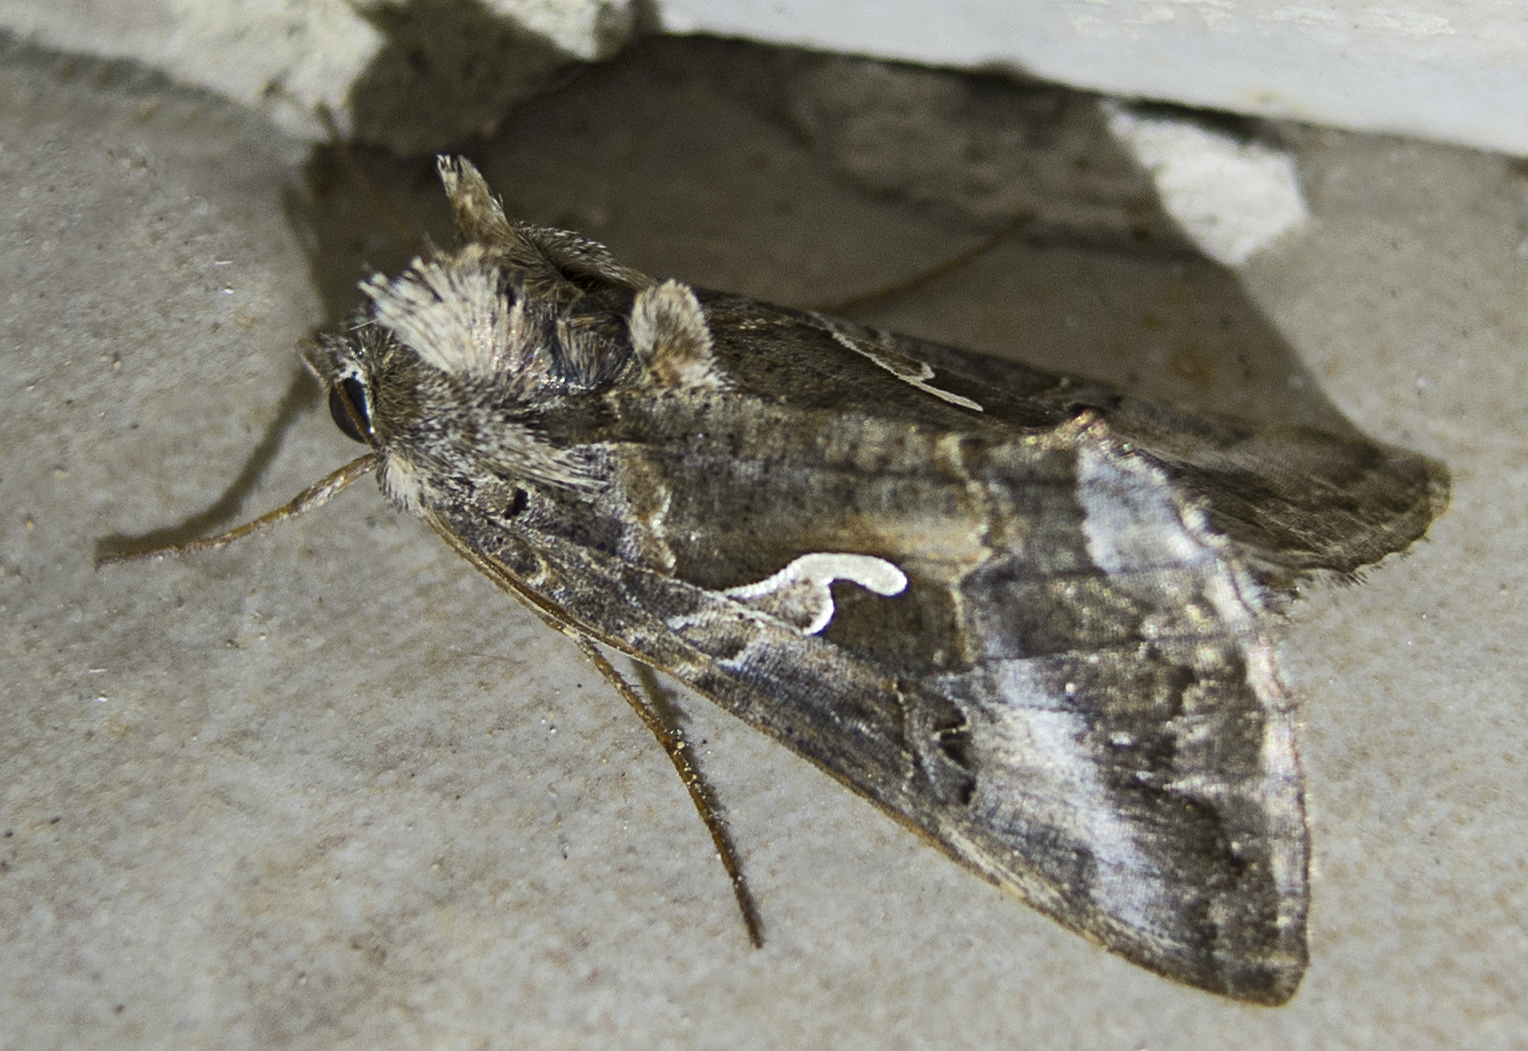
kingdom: Animalia
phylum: Arthropoda
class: Insecta
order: Lepidoptera
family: Noctuidae
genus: Autographa
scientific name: Autographa gamma
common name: Silver y
